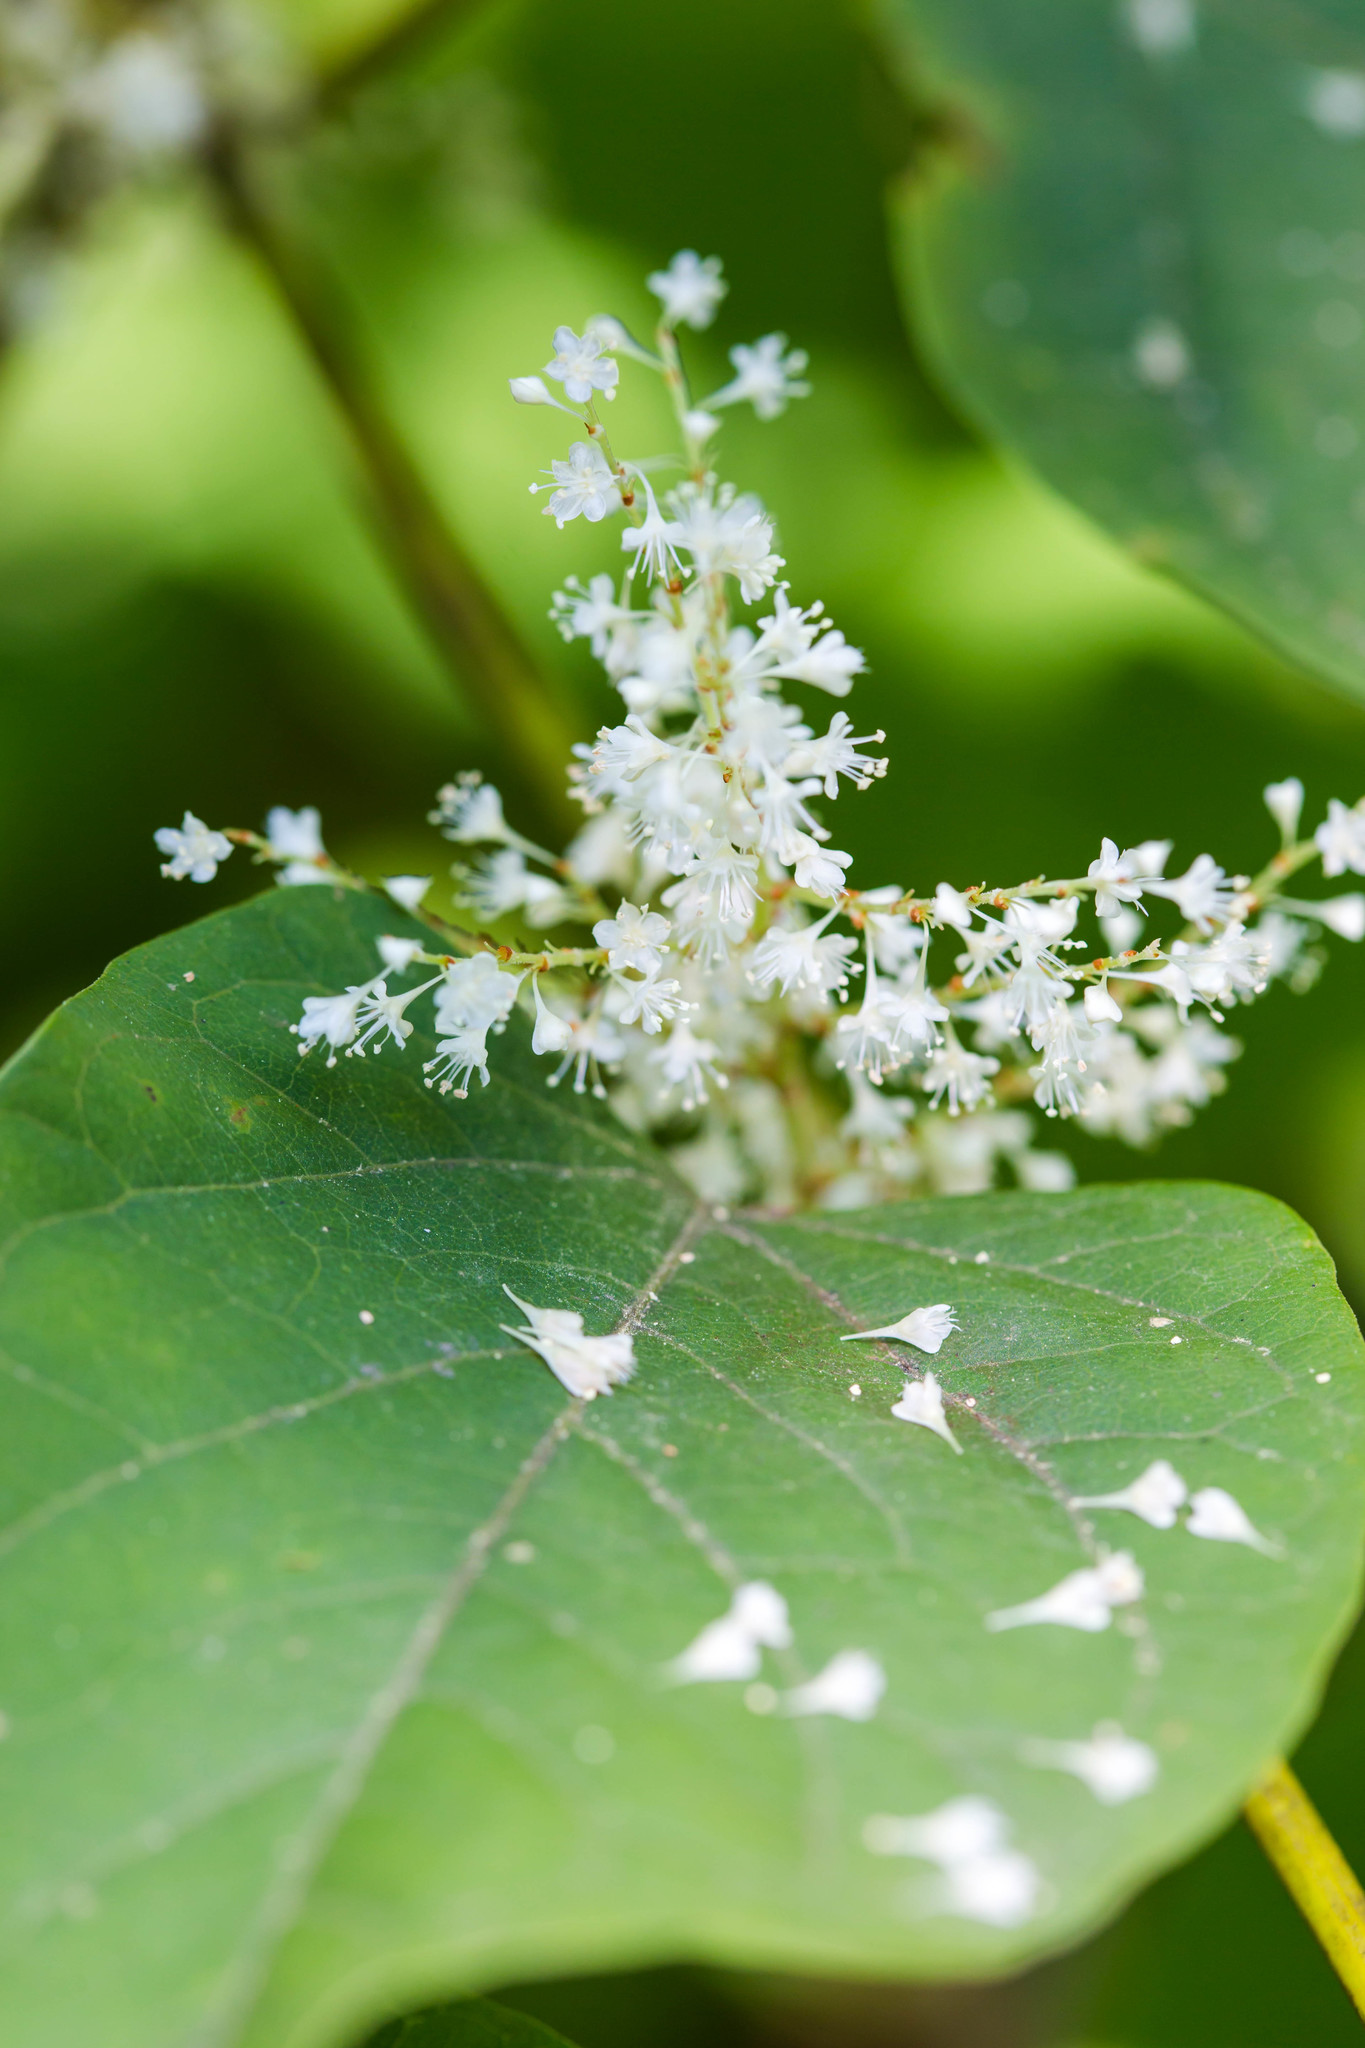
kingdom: Plantae
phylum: Tracheophyta
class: Magnoliopsida
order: Caryophyllales
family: Polygonaceae
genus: Reynoutria
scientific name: Reynoutria japonica
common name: Japanese knotweed
